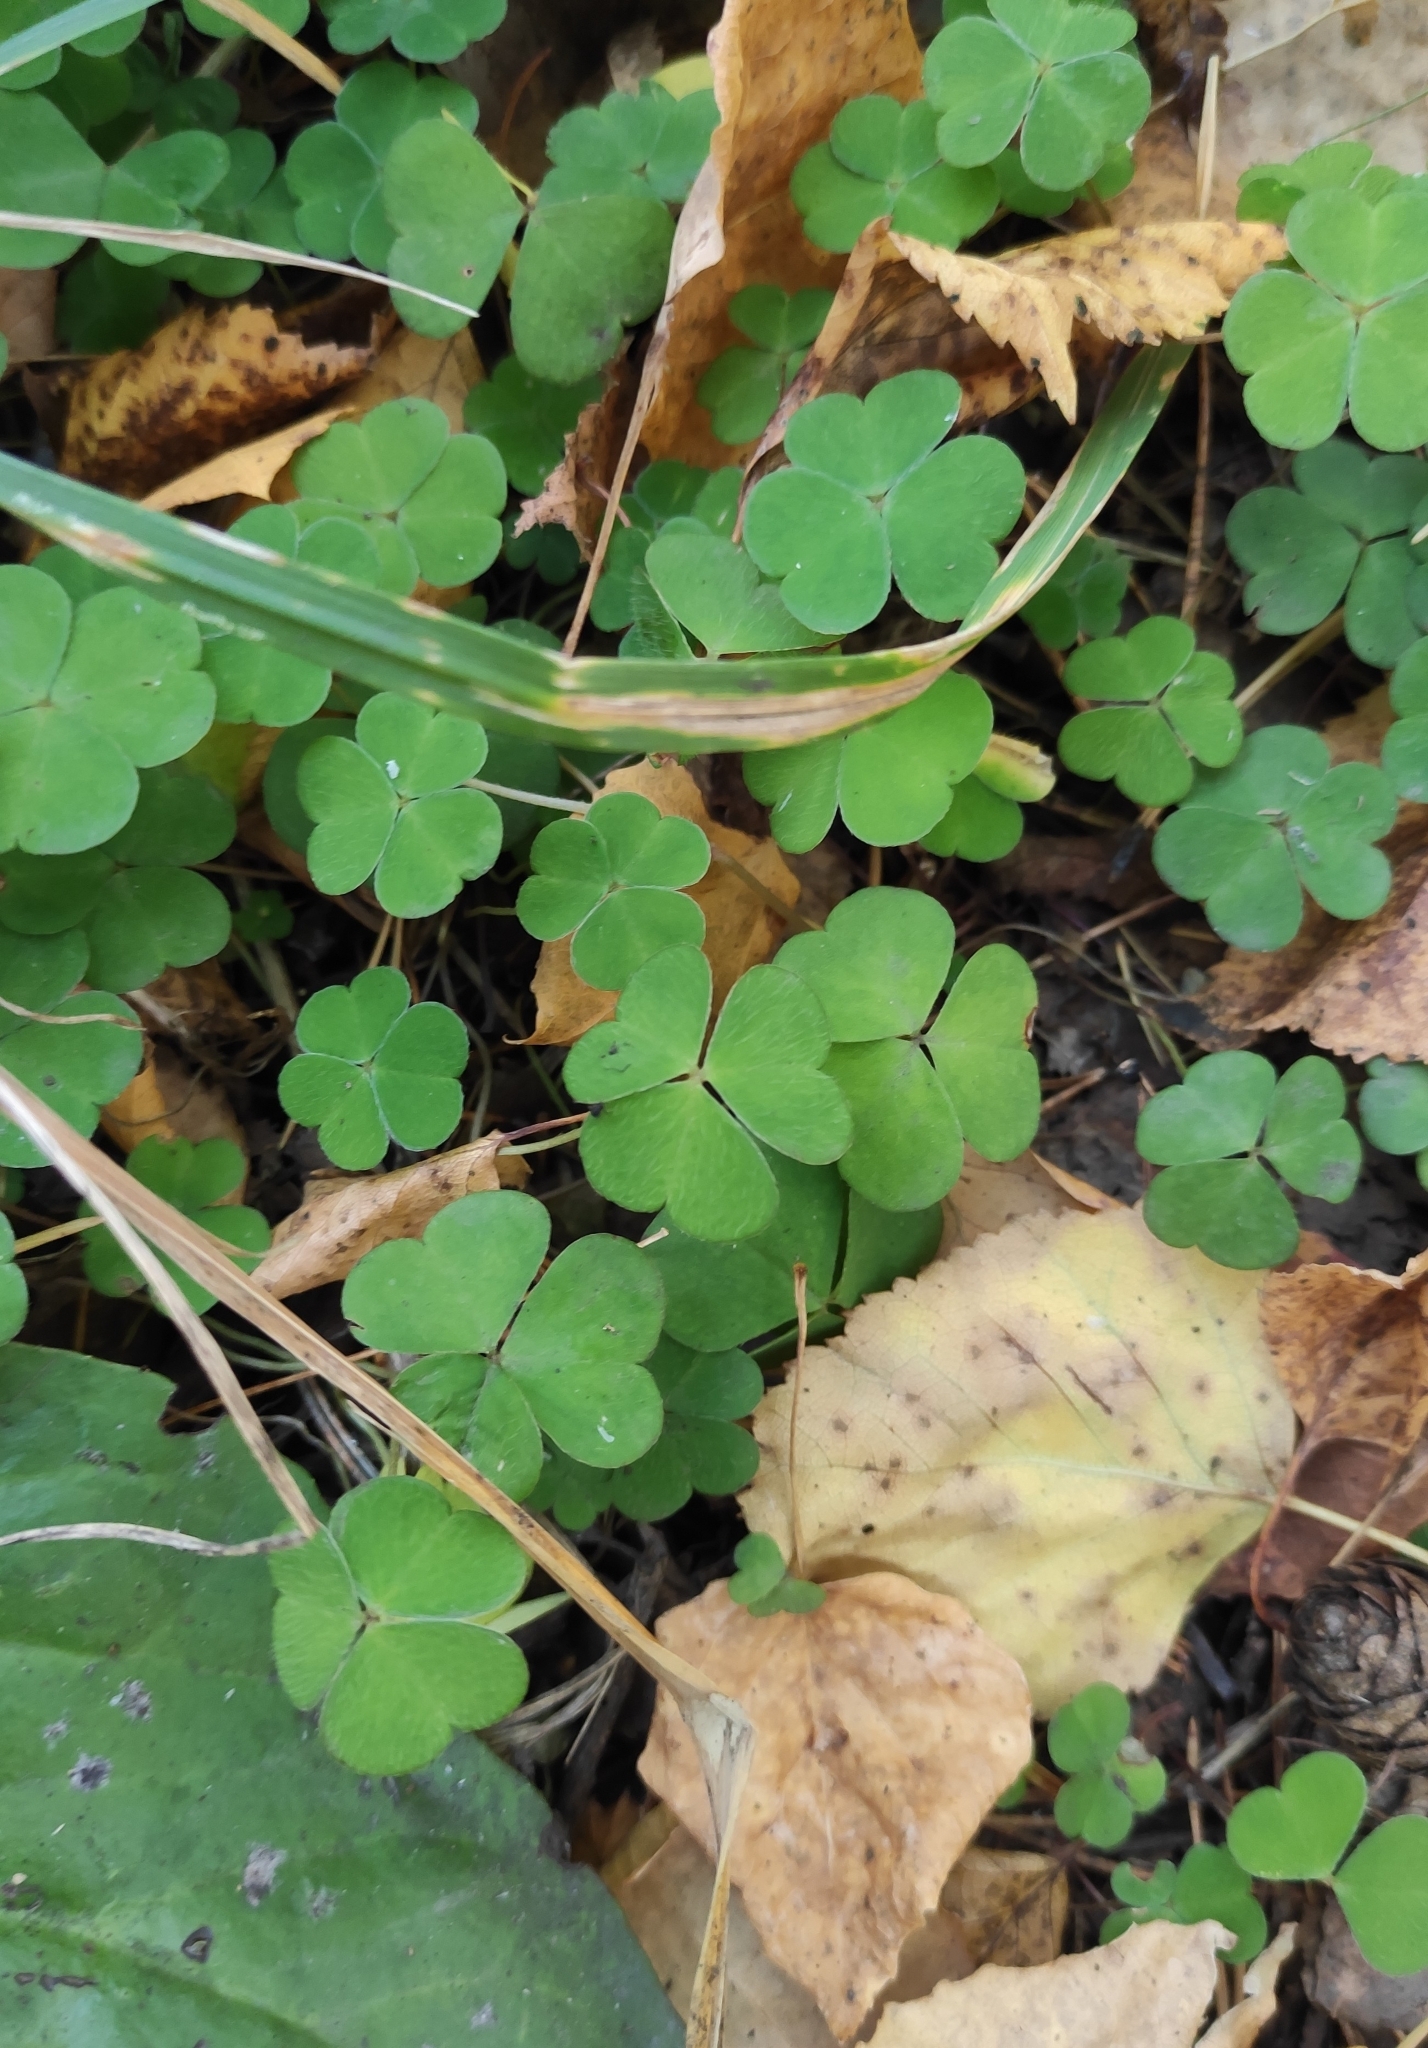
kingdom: Plantae
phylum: Tracheophyta
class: Magnoliopsida
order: Oxalidales
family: Oxalidaceae
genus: Oxalis
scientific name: Oxalis acetosella
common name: Wood-sorrel
